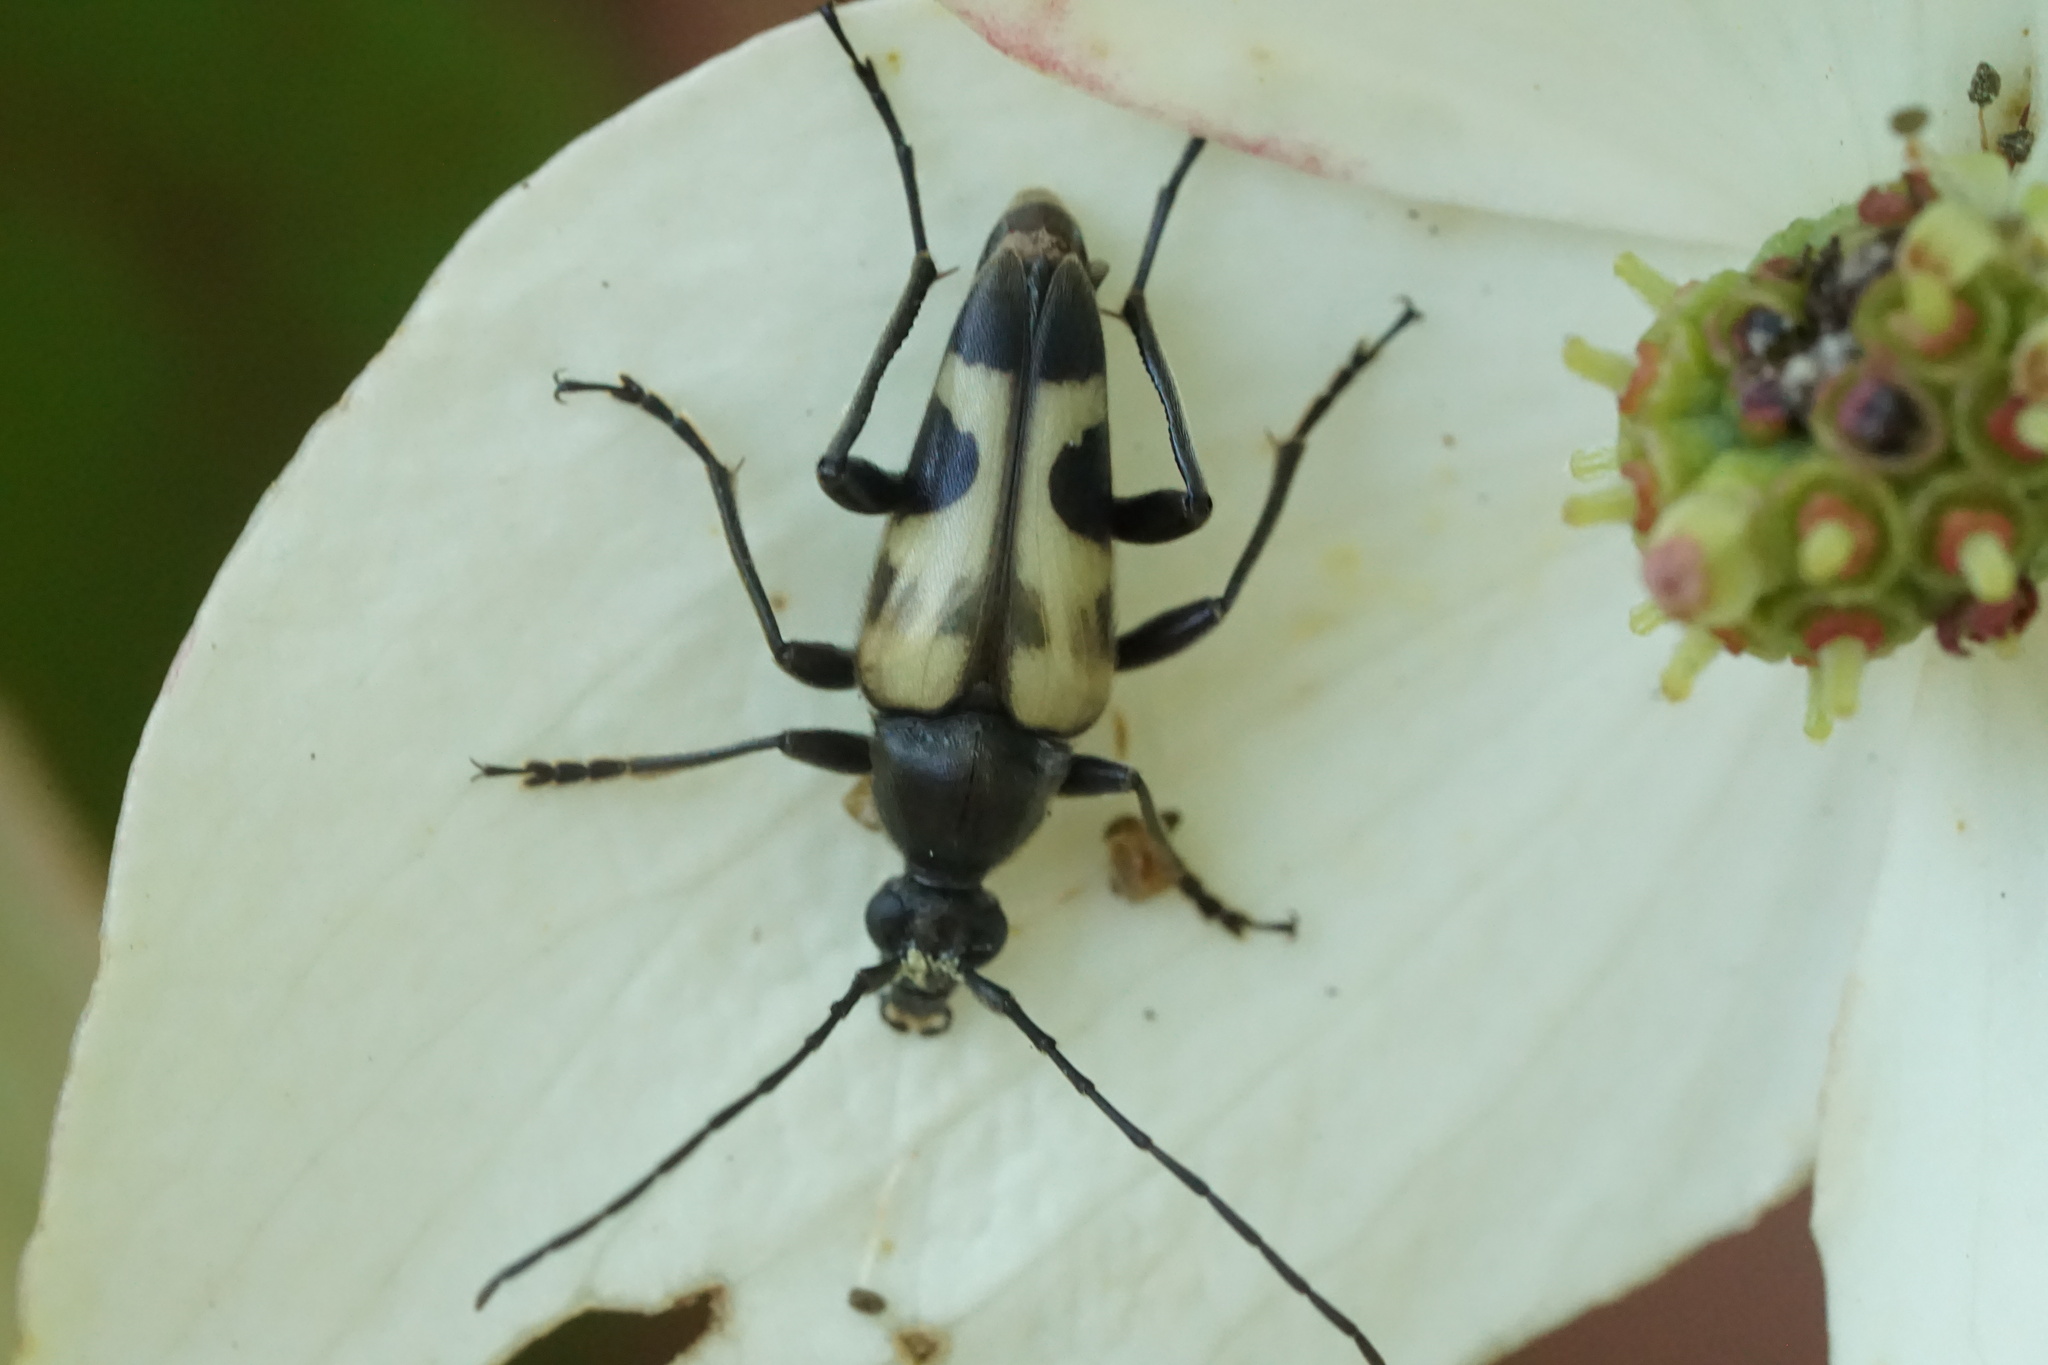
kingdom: Animalia
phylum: Arthropoda
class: Insecta
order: Coleoptera
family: Cerambycidae
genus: Judolia
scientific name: Judolia cordifera
